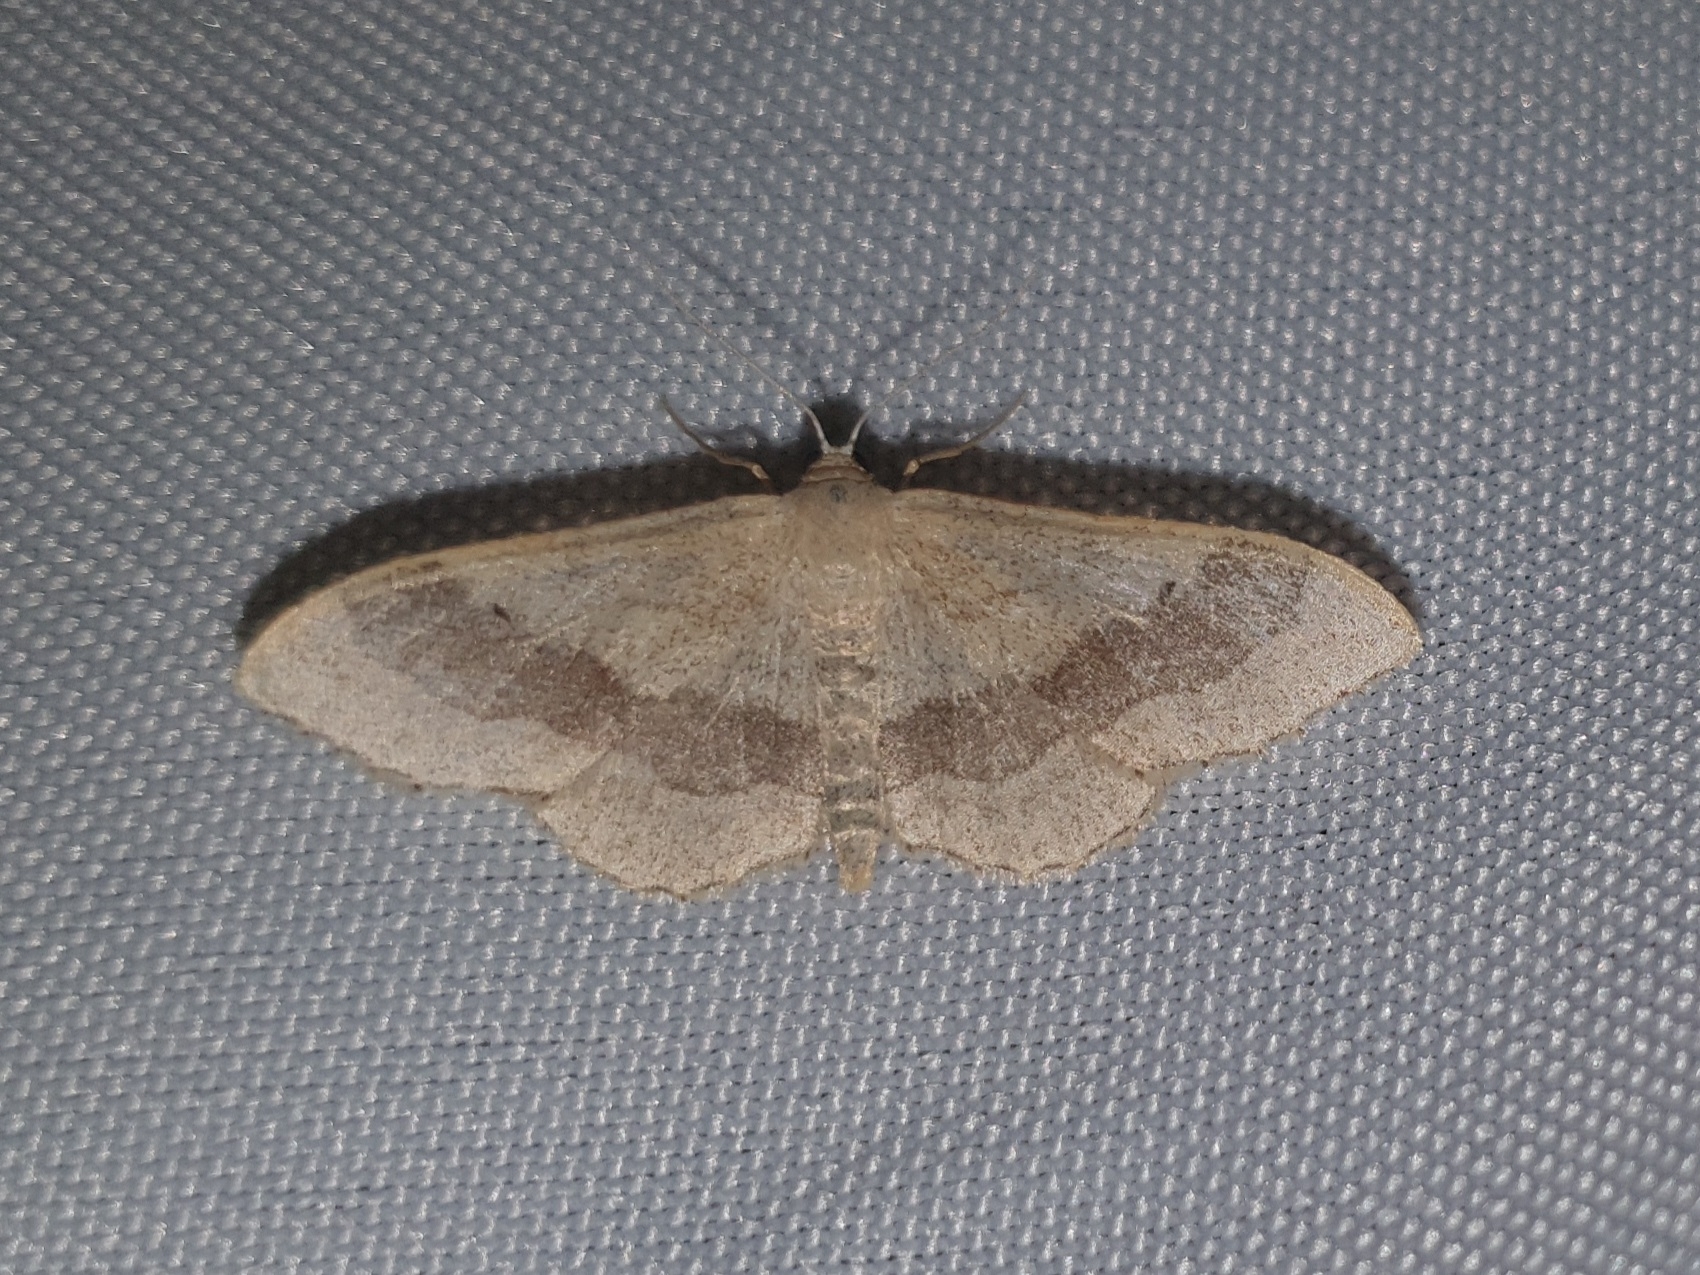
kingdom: Animalia
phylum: Arthropoda
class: Insecta
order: Lepidoptera
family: Geometridae
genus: Idaea
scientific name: Idaea aversata
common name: Riband wave
